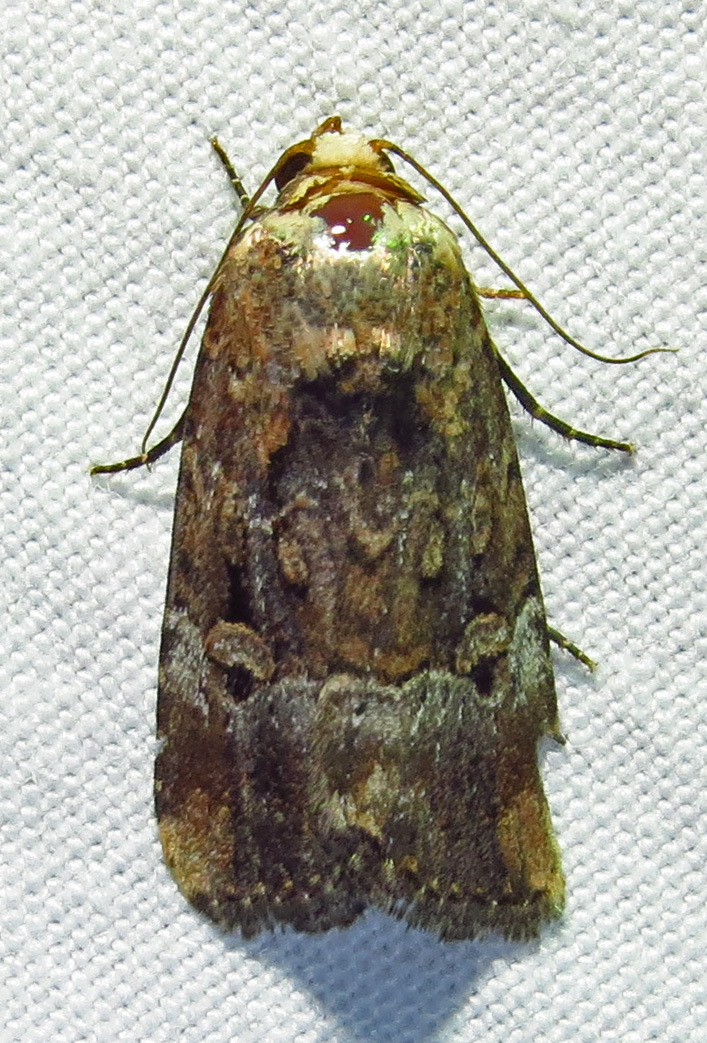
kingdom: Animalia
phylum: Arthropoda
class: Insecta
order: Lepidoptera
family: Noctuidae
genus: Elaphria
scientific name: Elaphria chalcedonia
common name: Chalcedony midget
